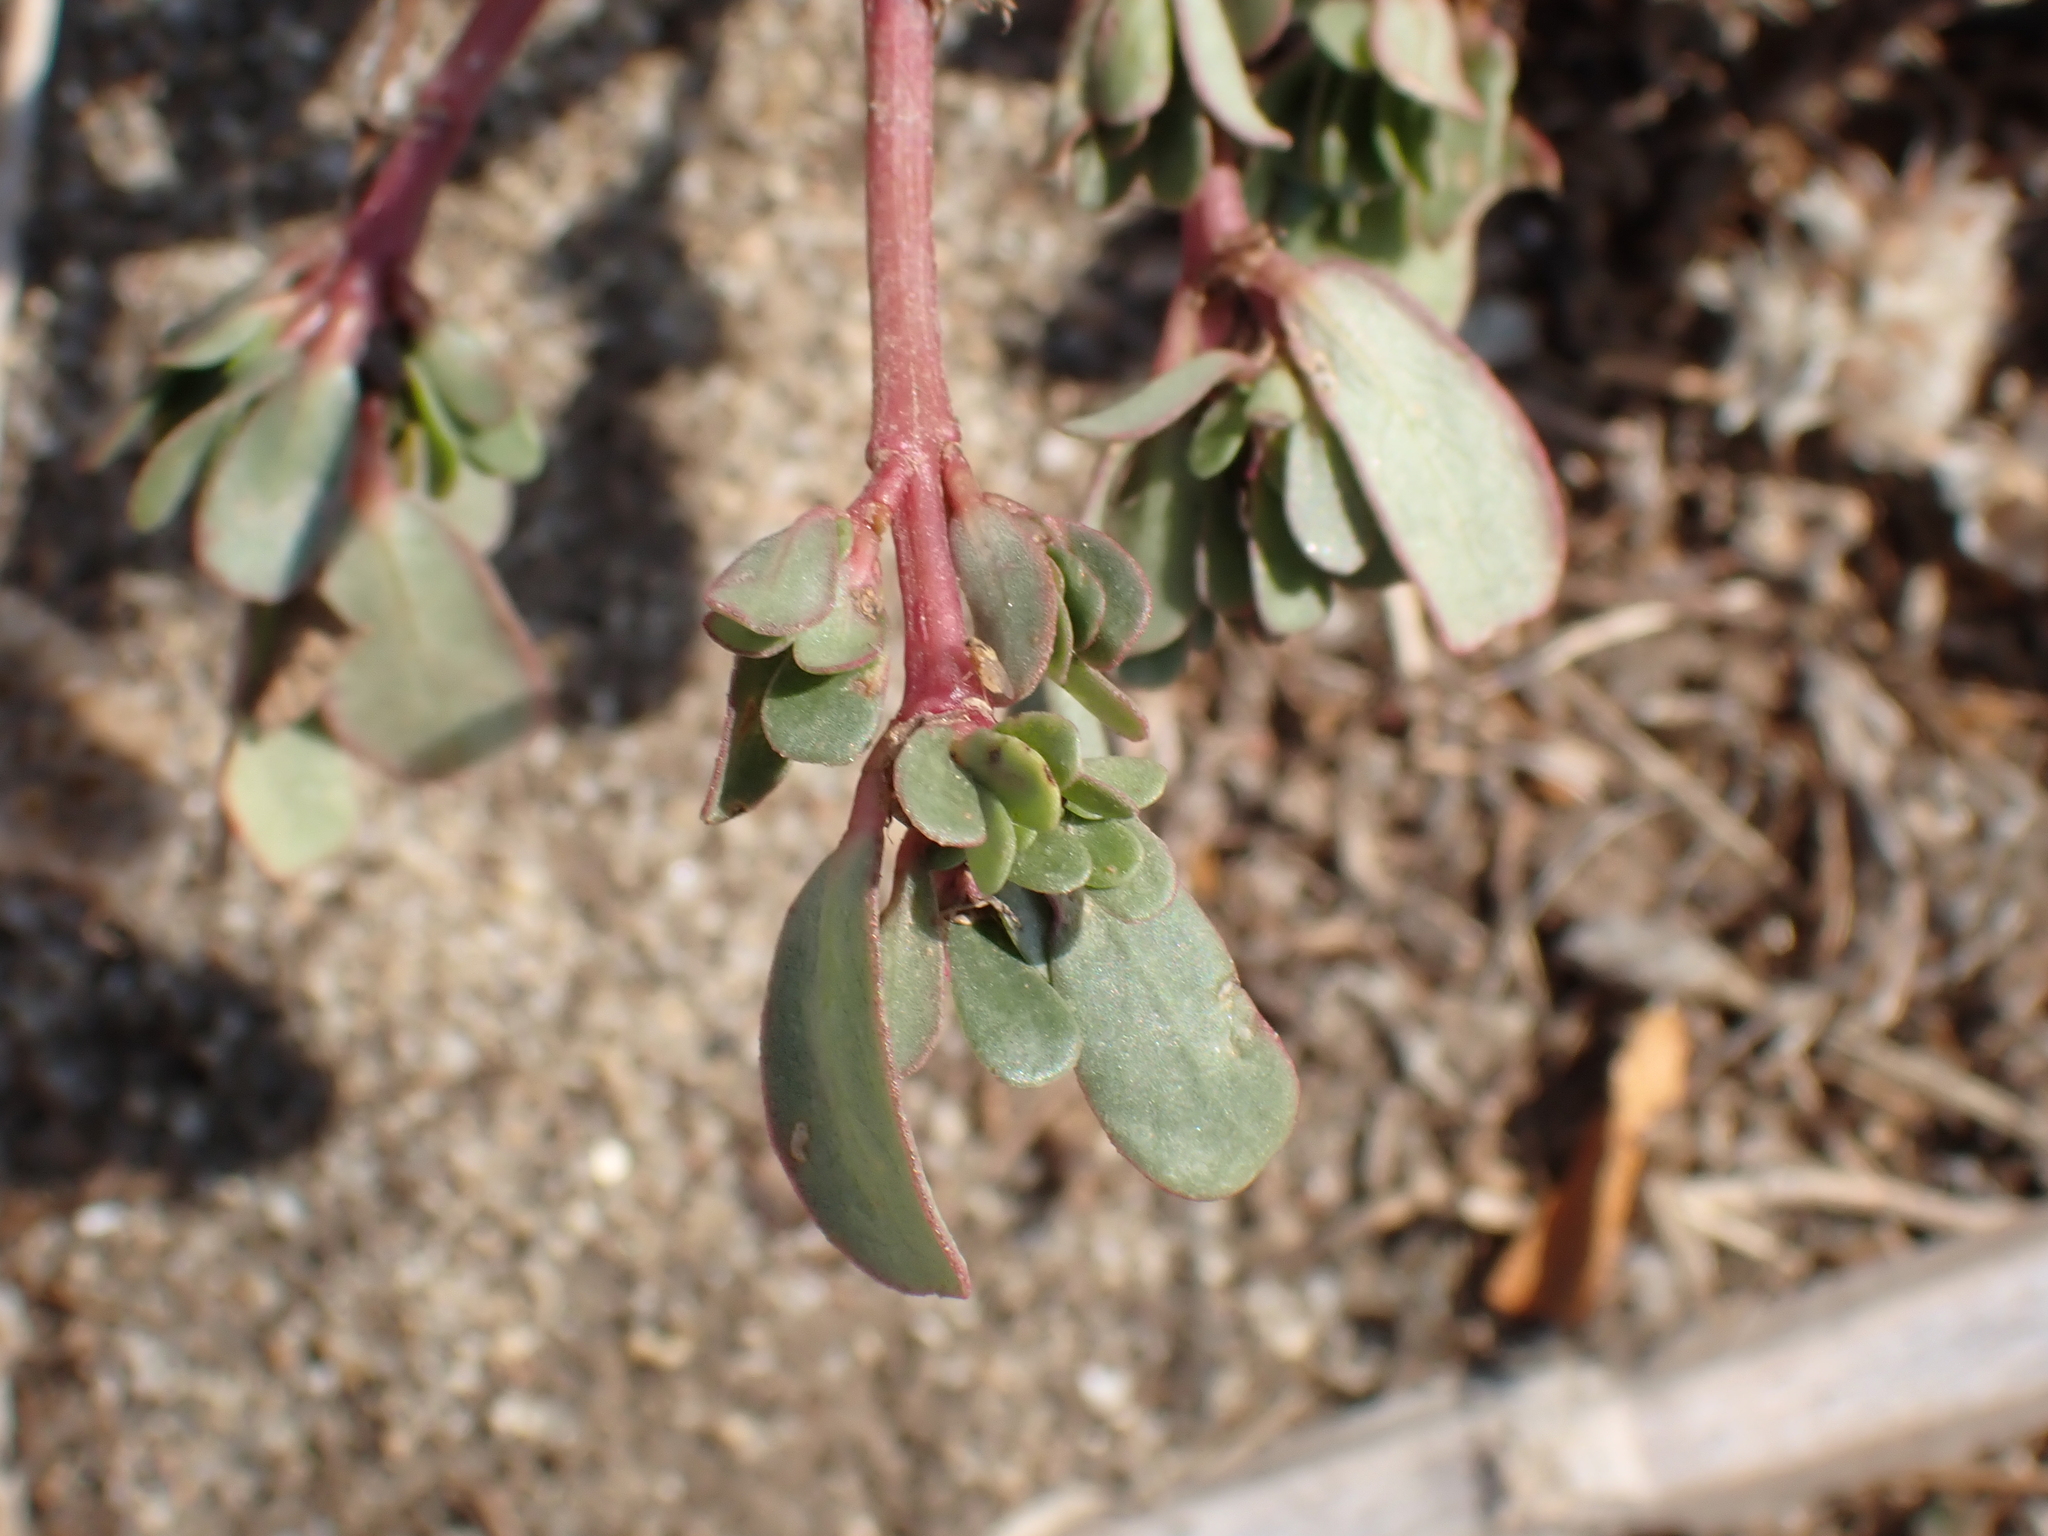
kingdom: Plantae
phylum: Tracheophyta
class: Magnoliopsida
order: Caryophyllales
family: Portulacaceae
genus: Portulaca
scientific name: Portulaca oleracea
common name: Common purslane
